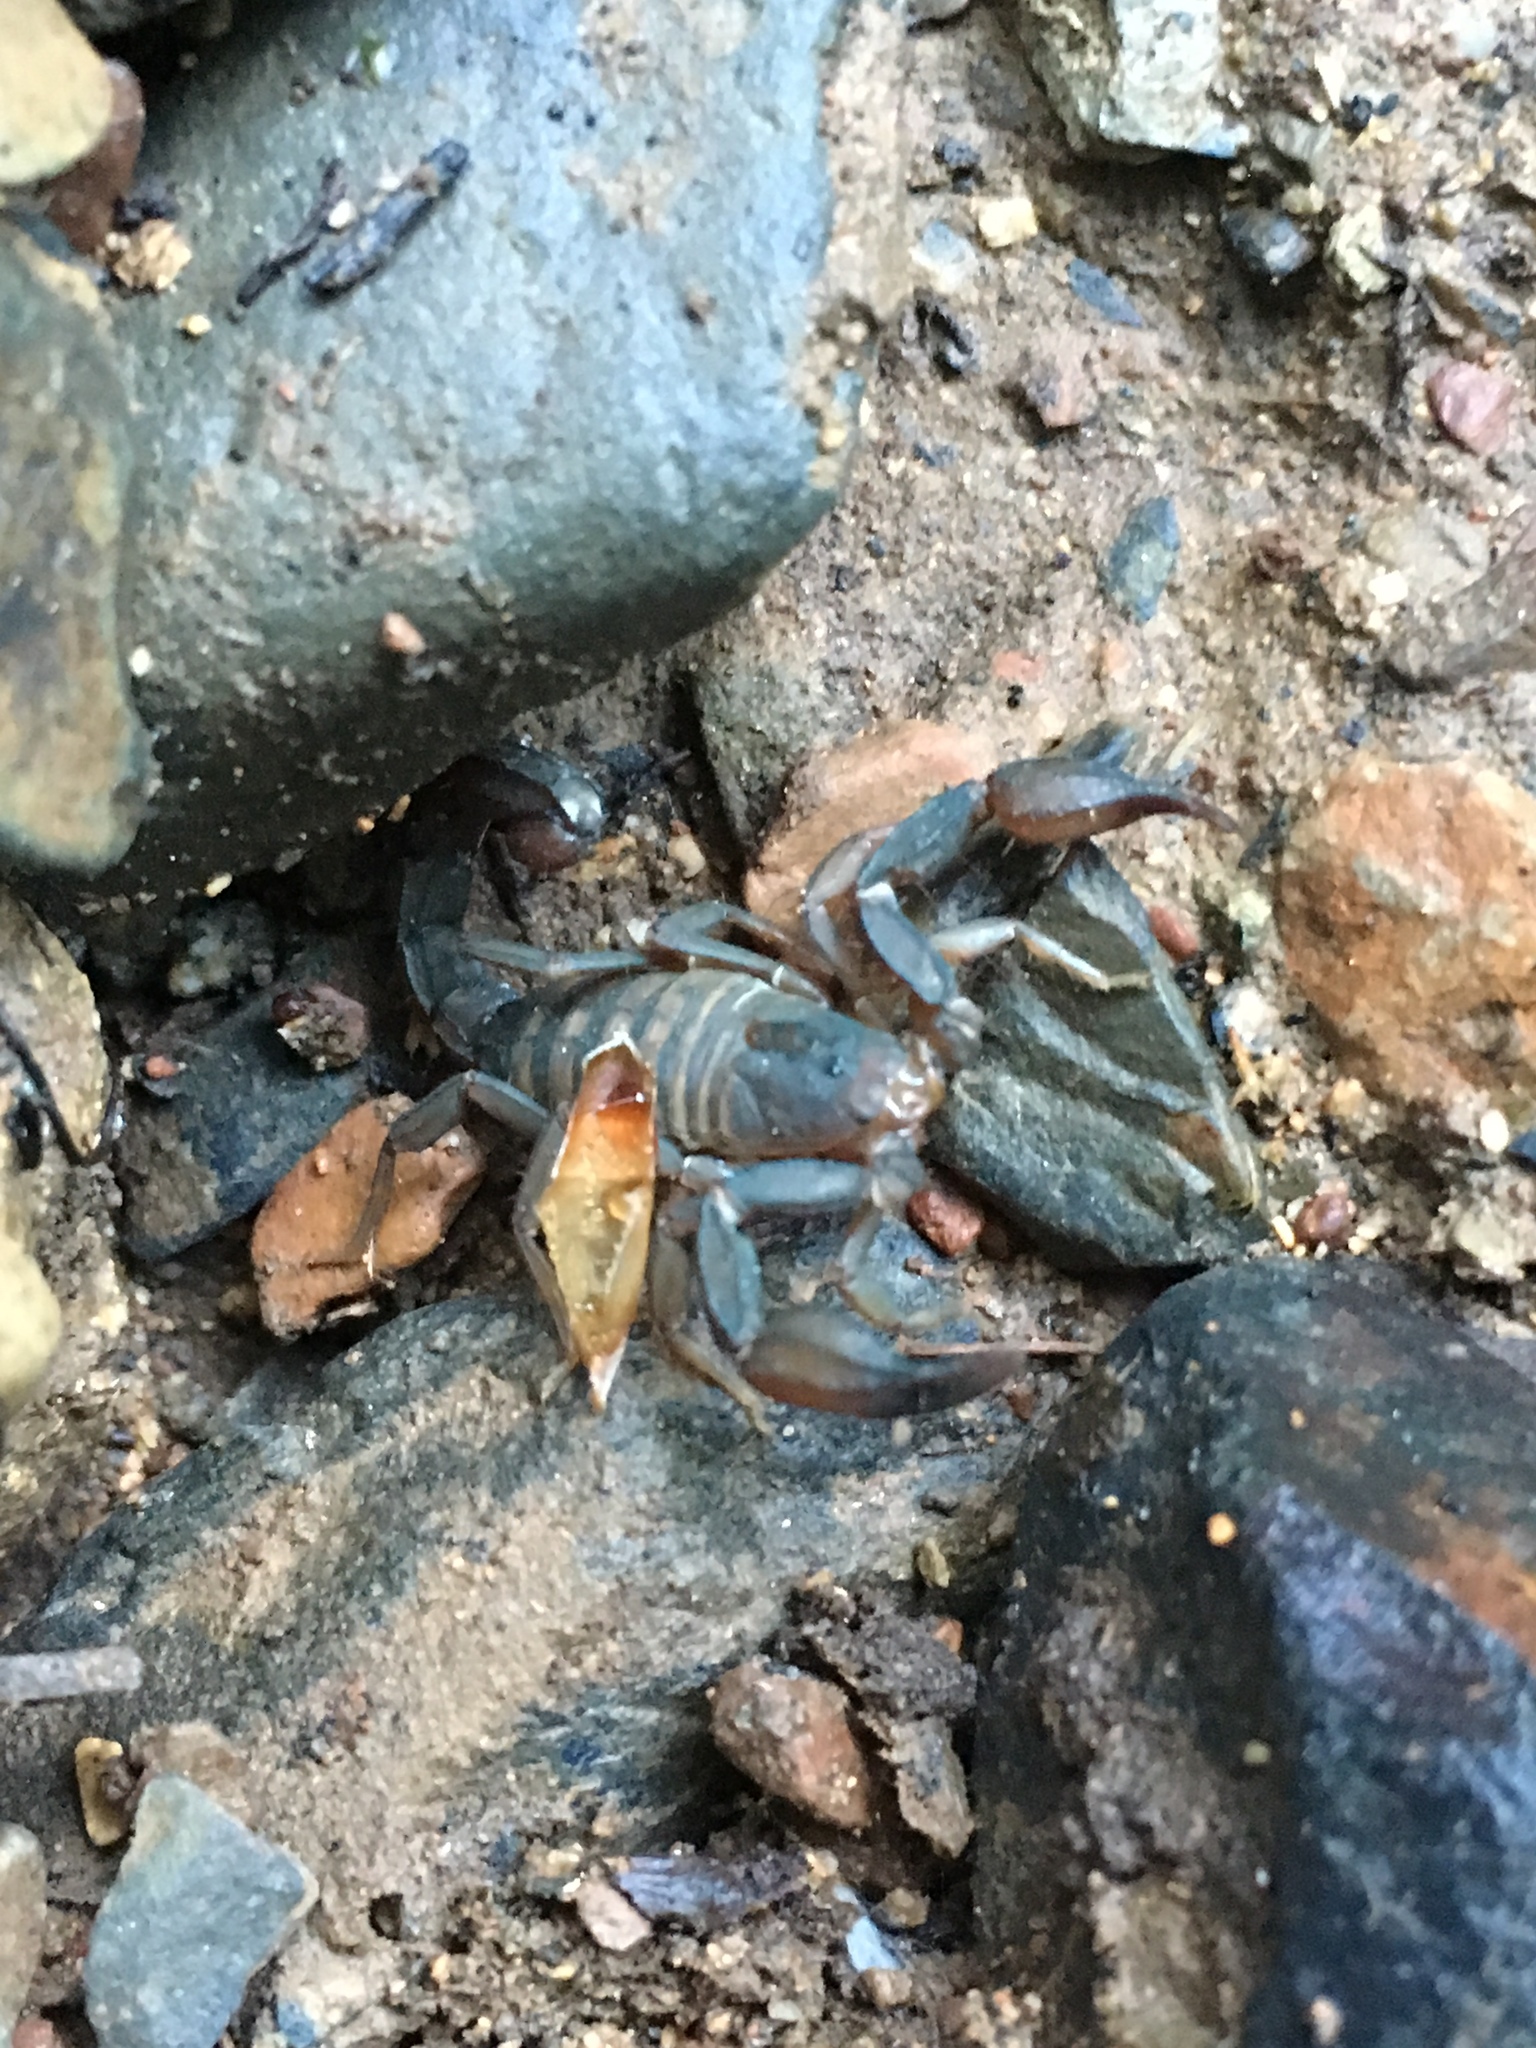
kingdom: Animalia
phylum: Arthropoda
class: Arachnida
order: Scorpiones
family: Vaejovidae
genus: Graemeloweus
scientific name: Graemeloweus iviei
